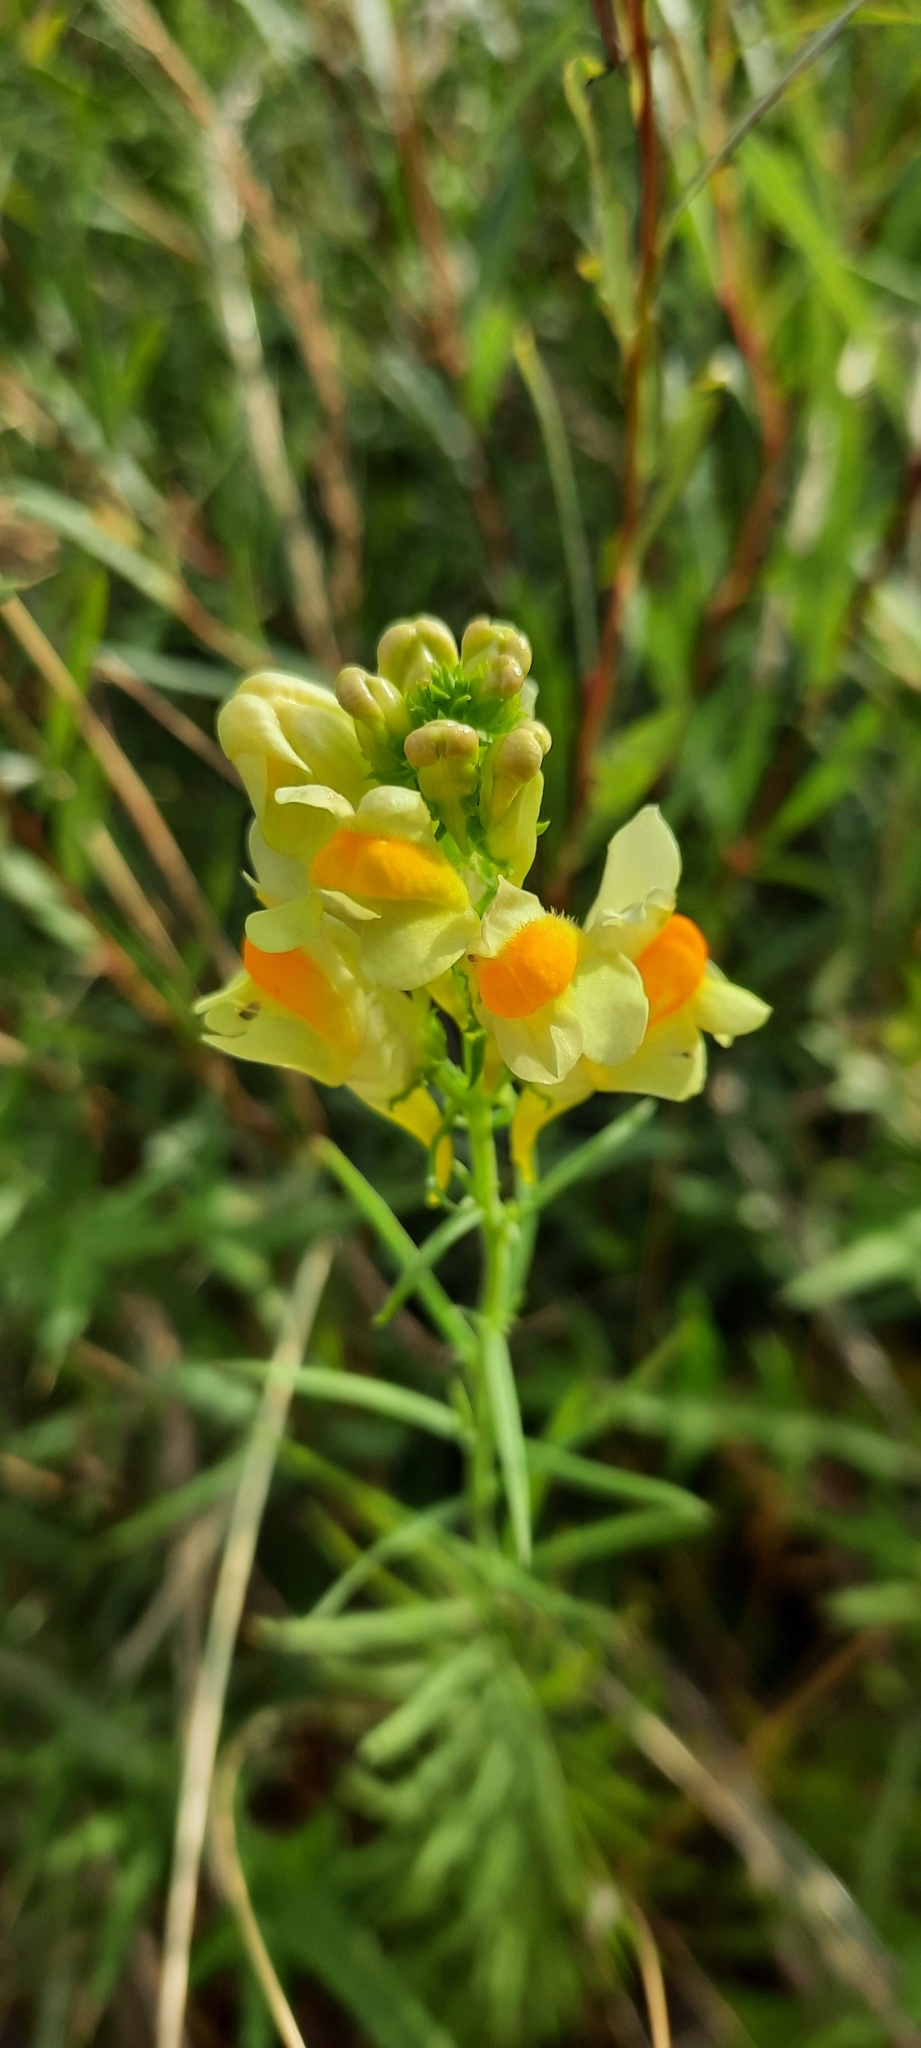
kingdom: Plantae
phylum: Tracheophyta
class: Magnoliopsida
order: Lamiales
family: Plantaginaceae
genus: Linaria
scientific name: Linaria vulgaris
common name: Butter and eggs
